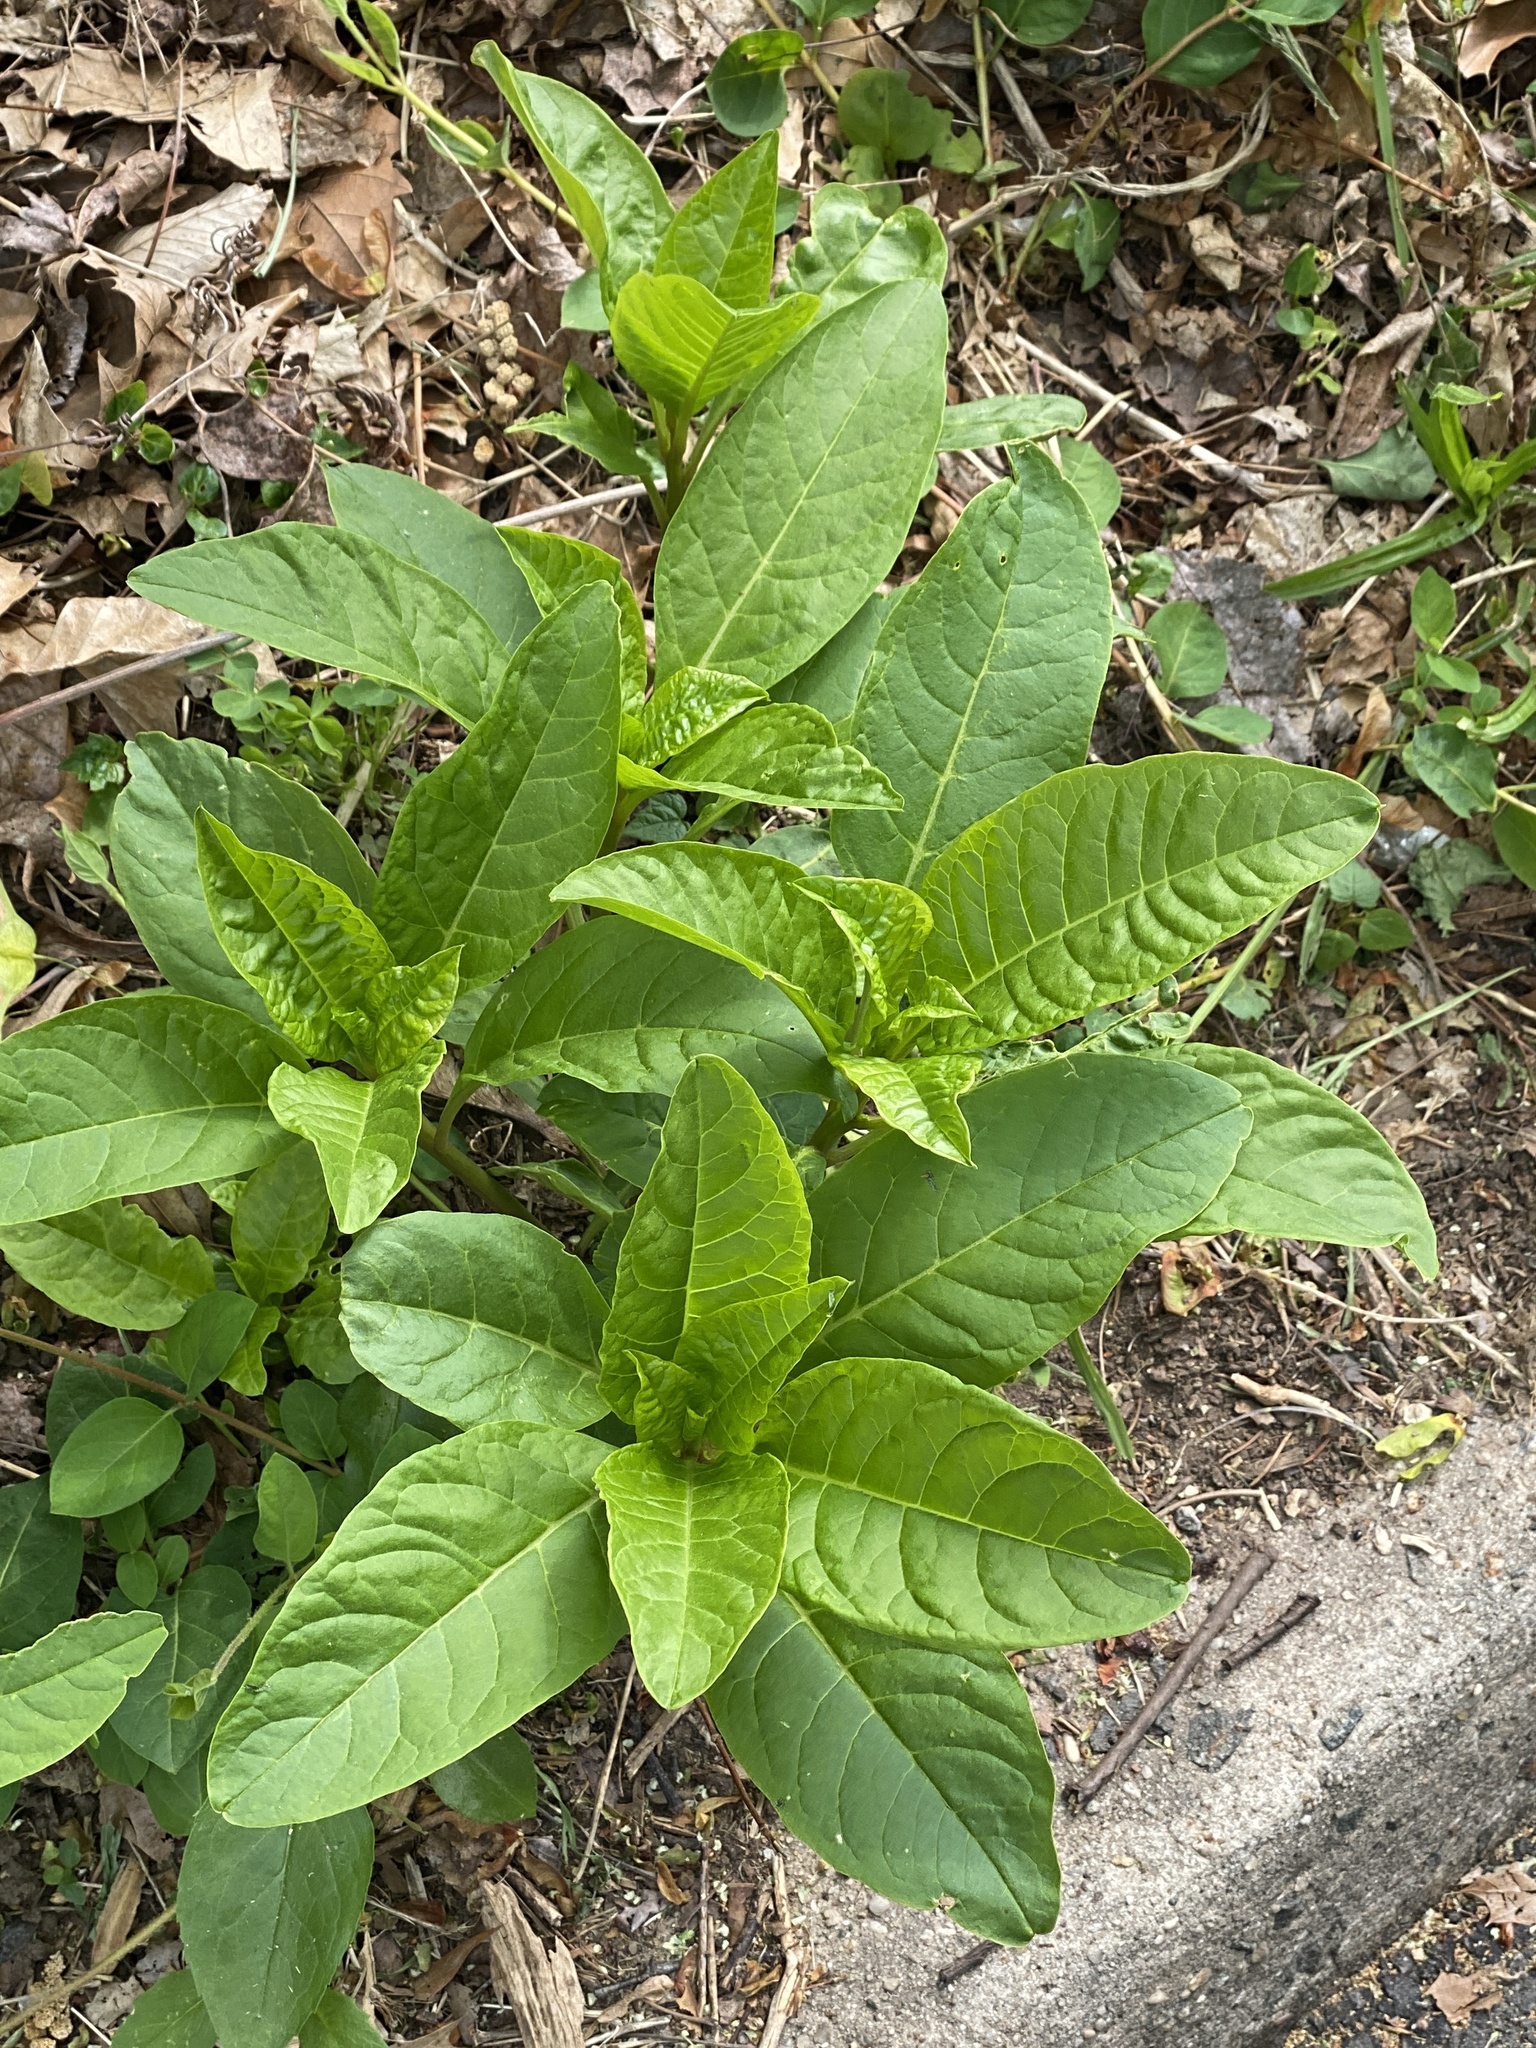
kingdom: Plantae
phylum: Tracheophyta
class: Magnoliopsida
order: Caryophyllales
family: Phytolaccaceae
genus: Phytolacca
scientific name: Phytolacca americana
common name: American pokeweed
